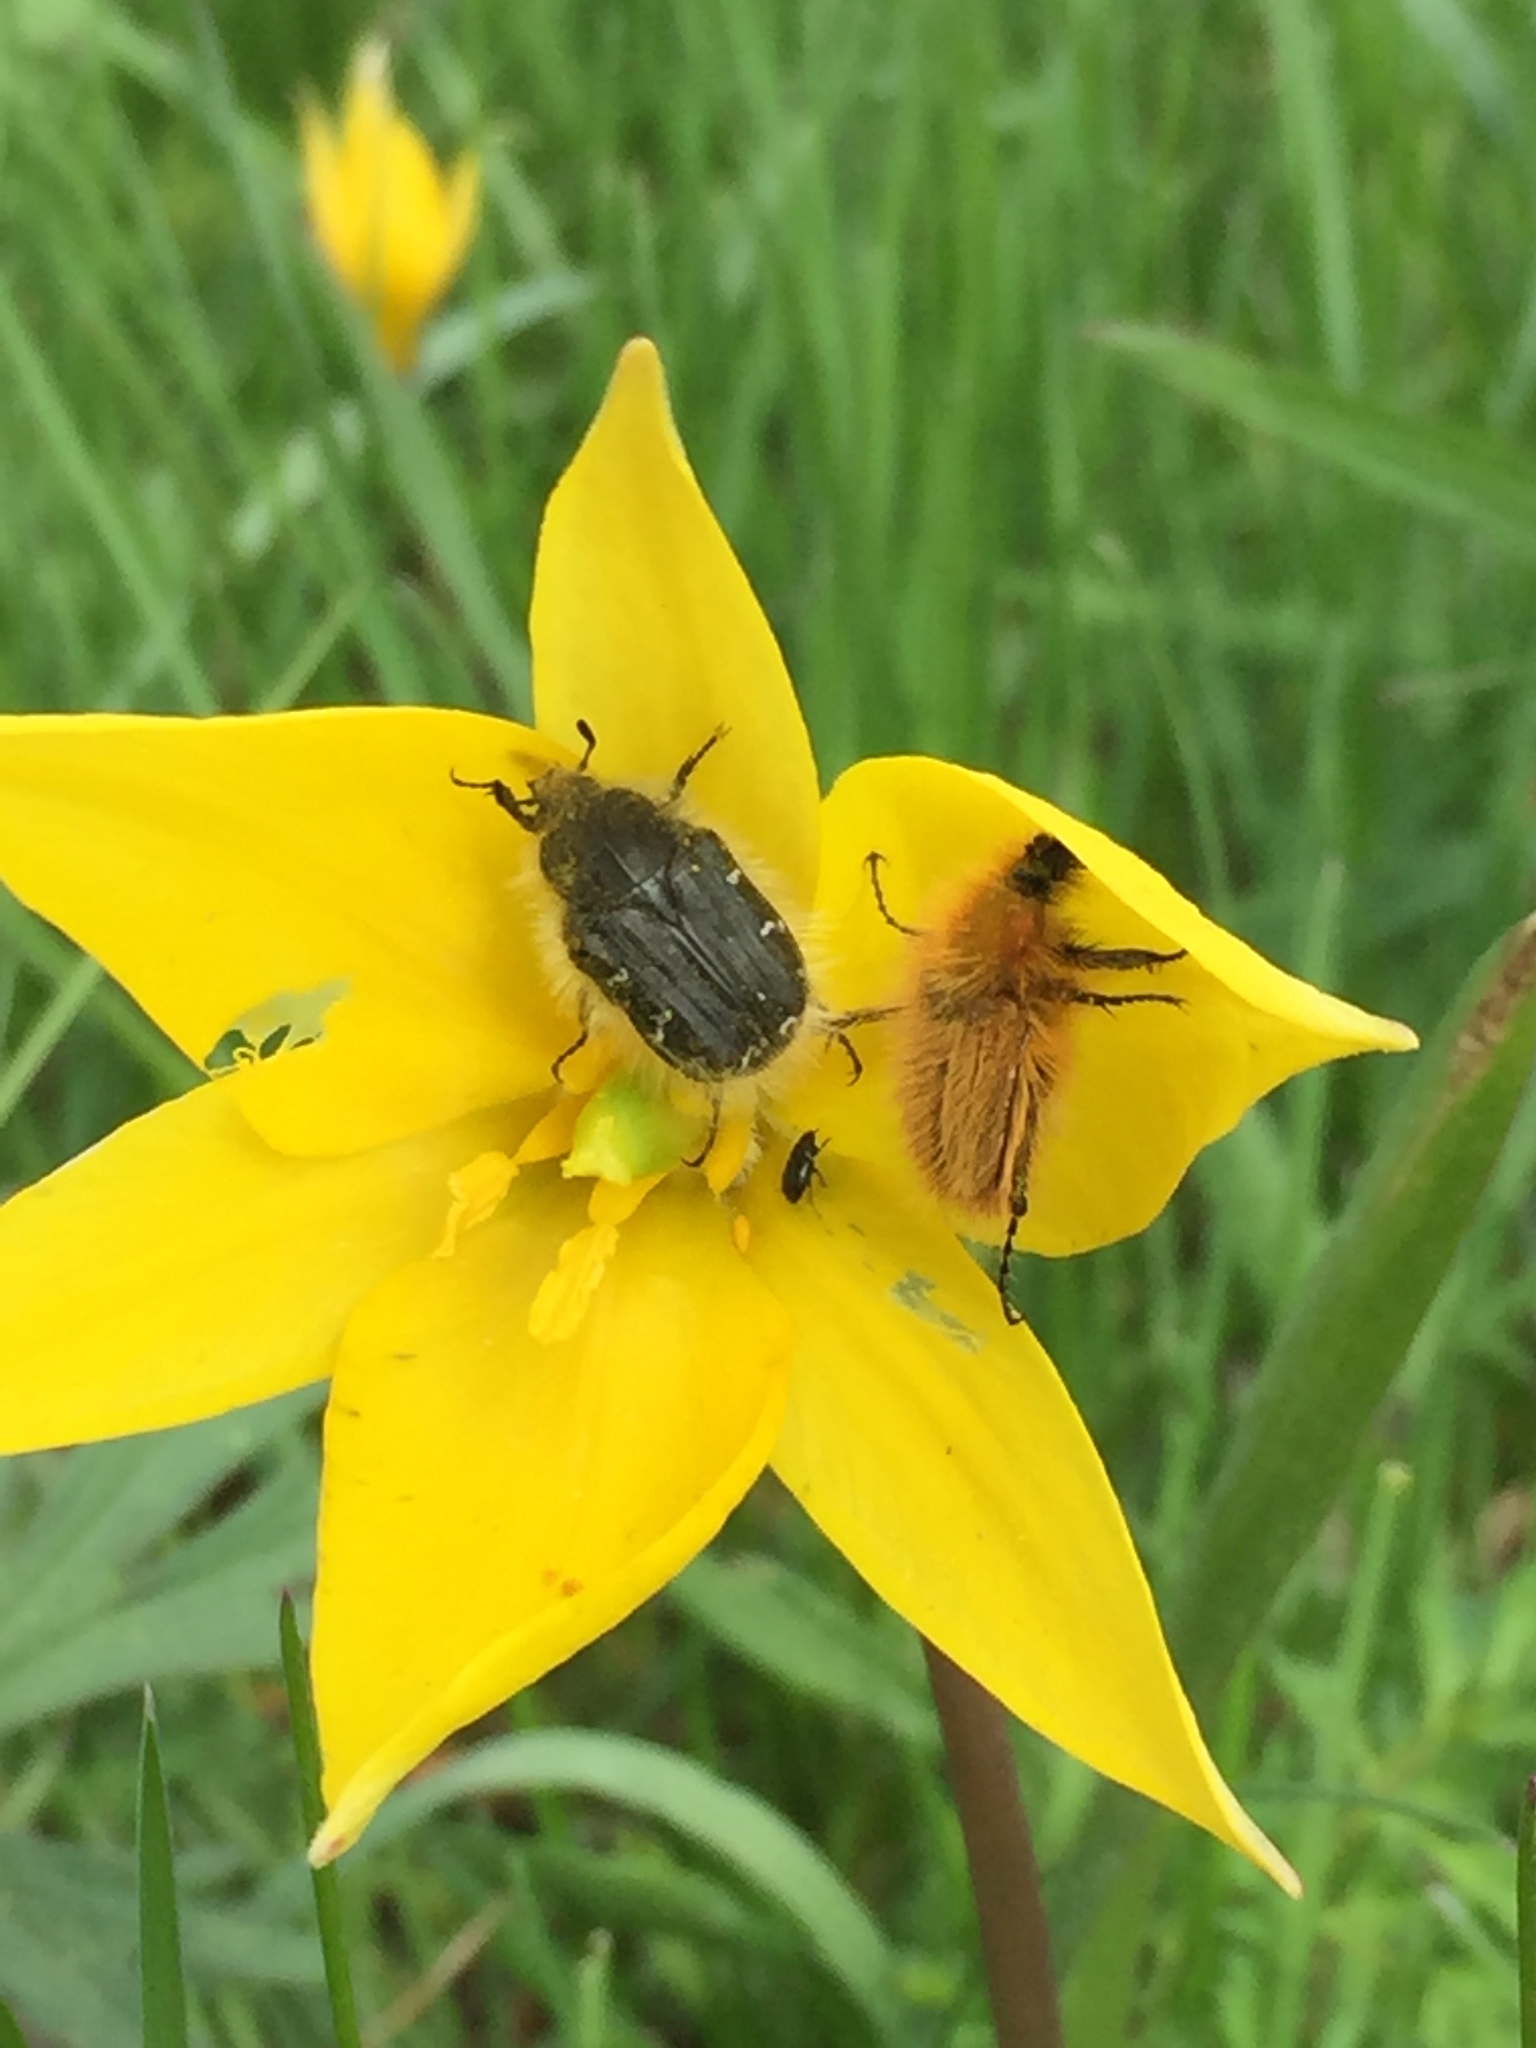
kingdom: Animalia
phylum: Arthropoda
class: Insecta
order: Coleoptera
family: Scarabaeidae
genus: Tropinota
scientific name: Tropinota hirta
